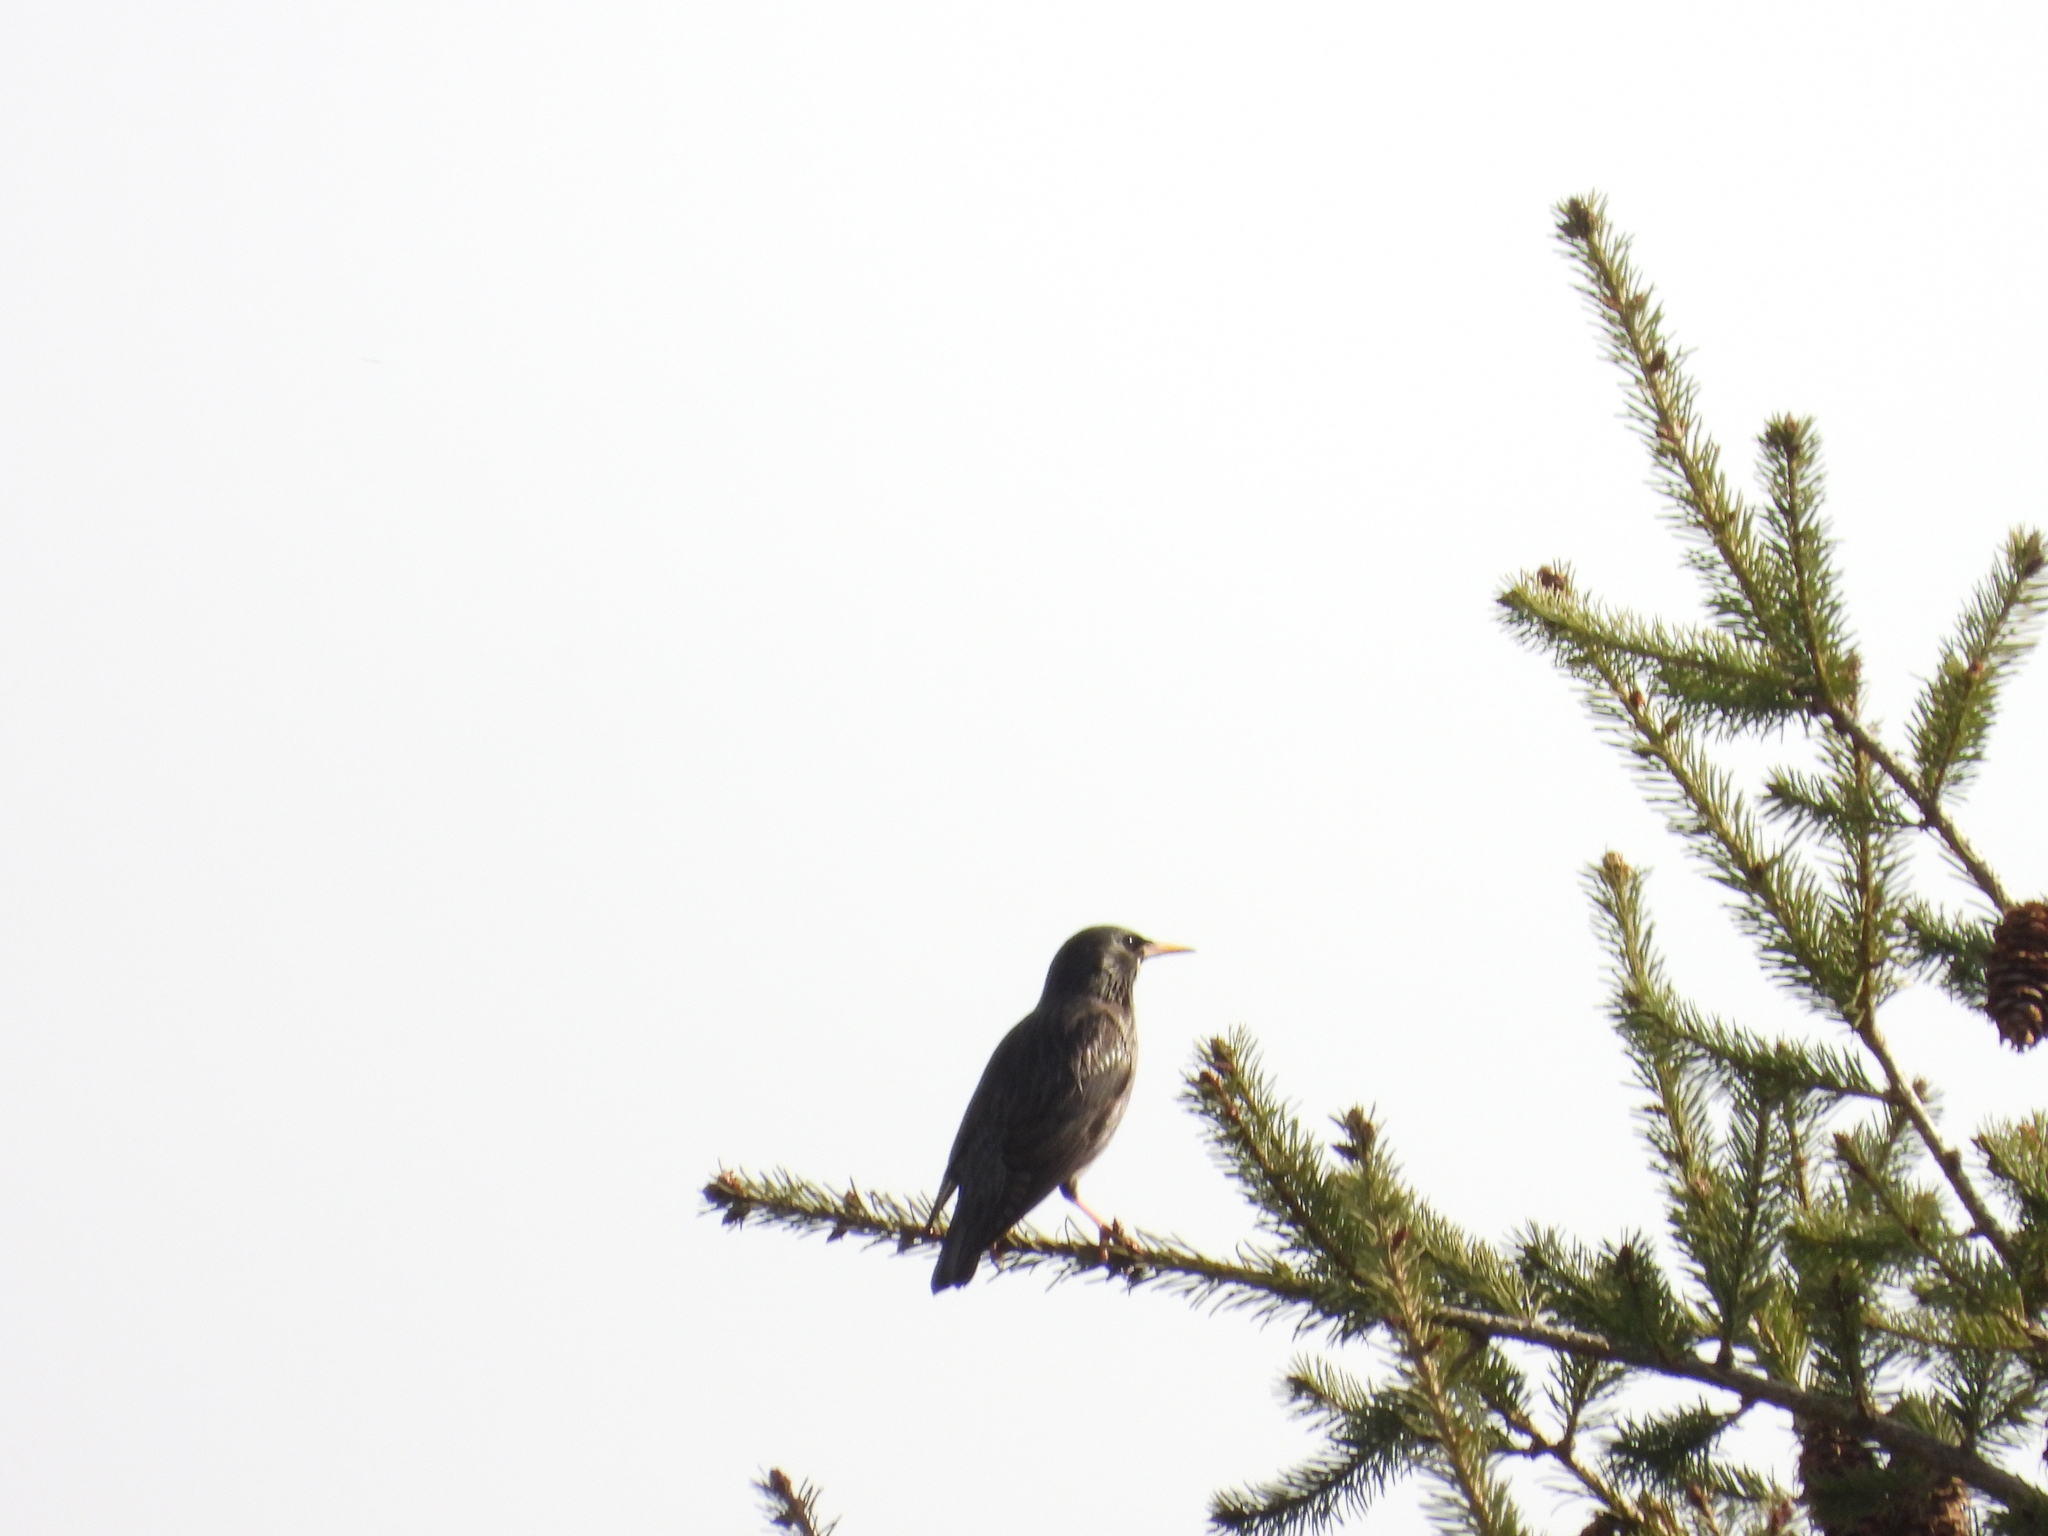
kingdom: Animalia
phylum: Chordata
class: Aves
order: Passeriformes
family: Sturnidae
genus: Sturnus
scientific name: Sturnus unicolor
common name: Spotless starling
